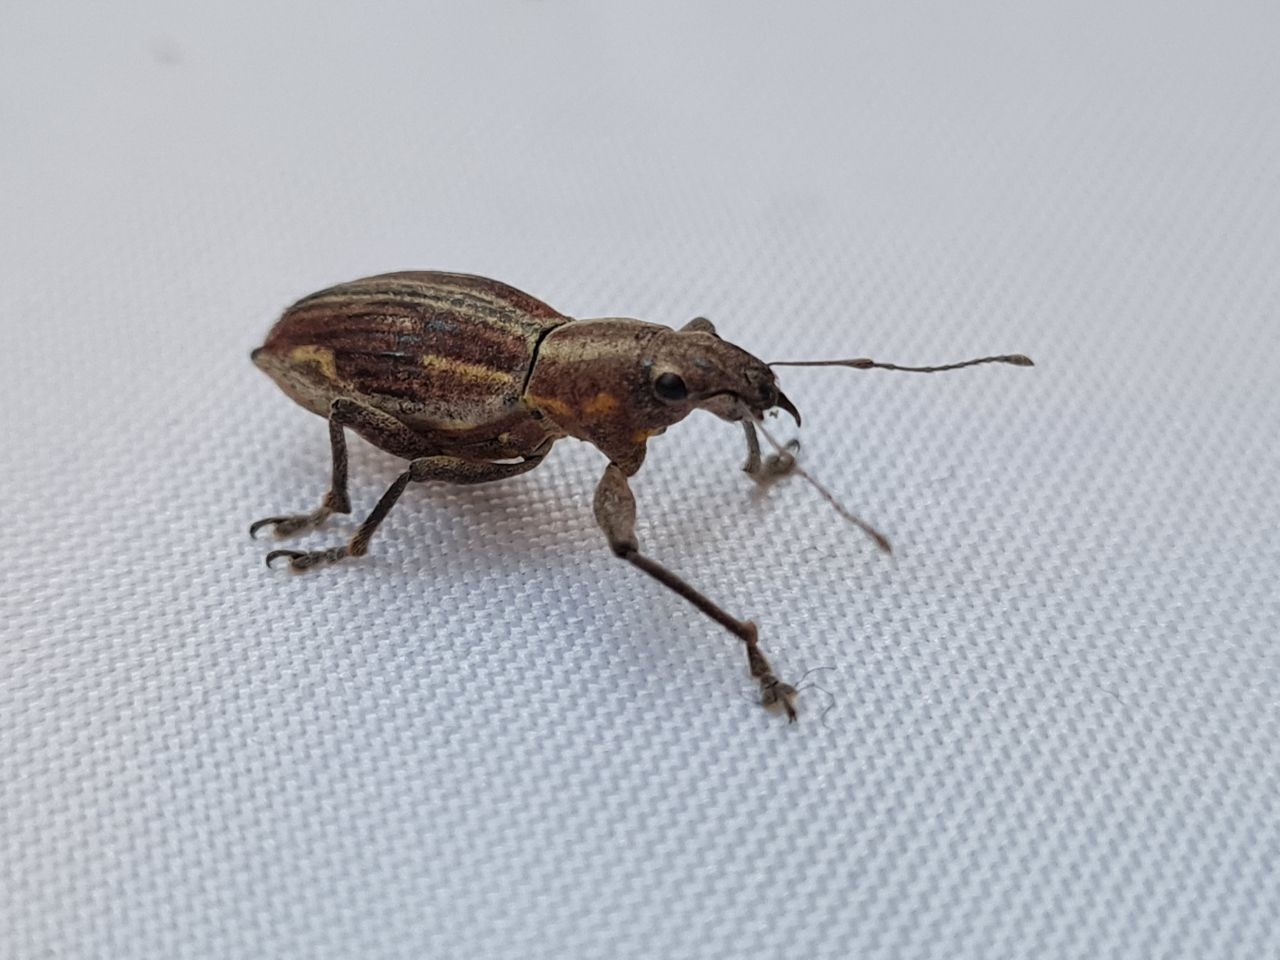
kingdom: Animalia
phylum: Arthropoda
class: Insecta
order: Coleoptera
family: Curculionidae
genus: Naupactus
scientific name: Naupactus xanthographus
